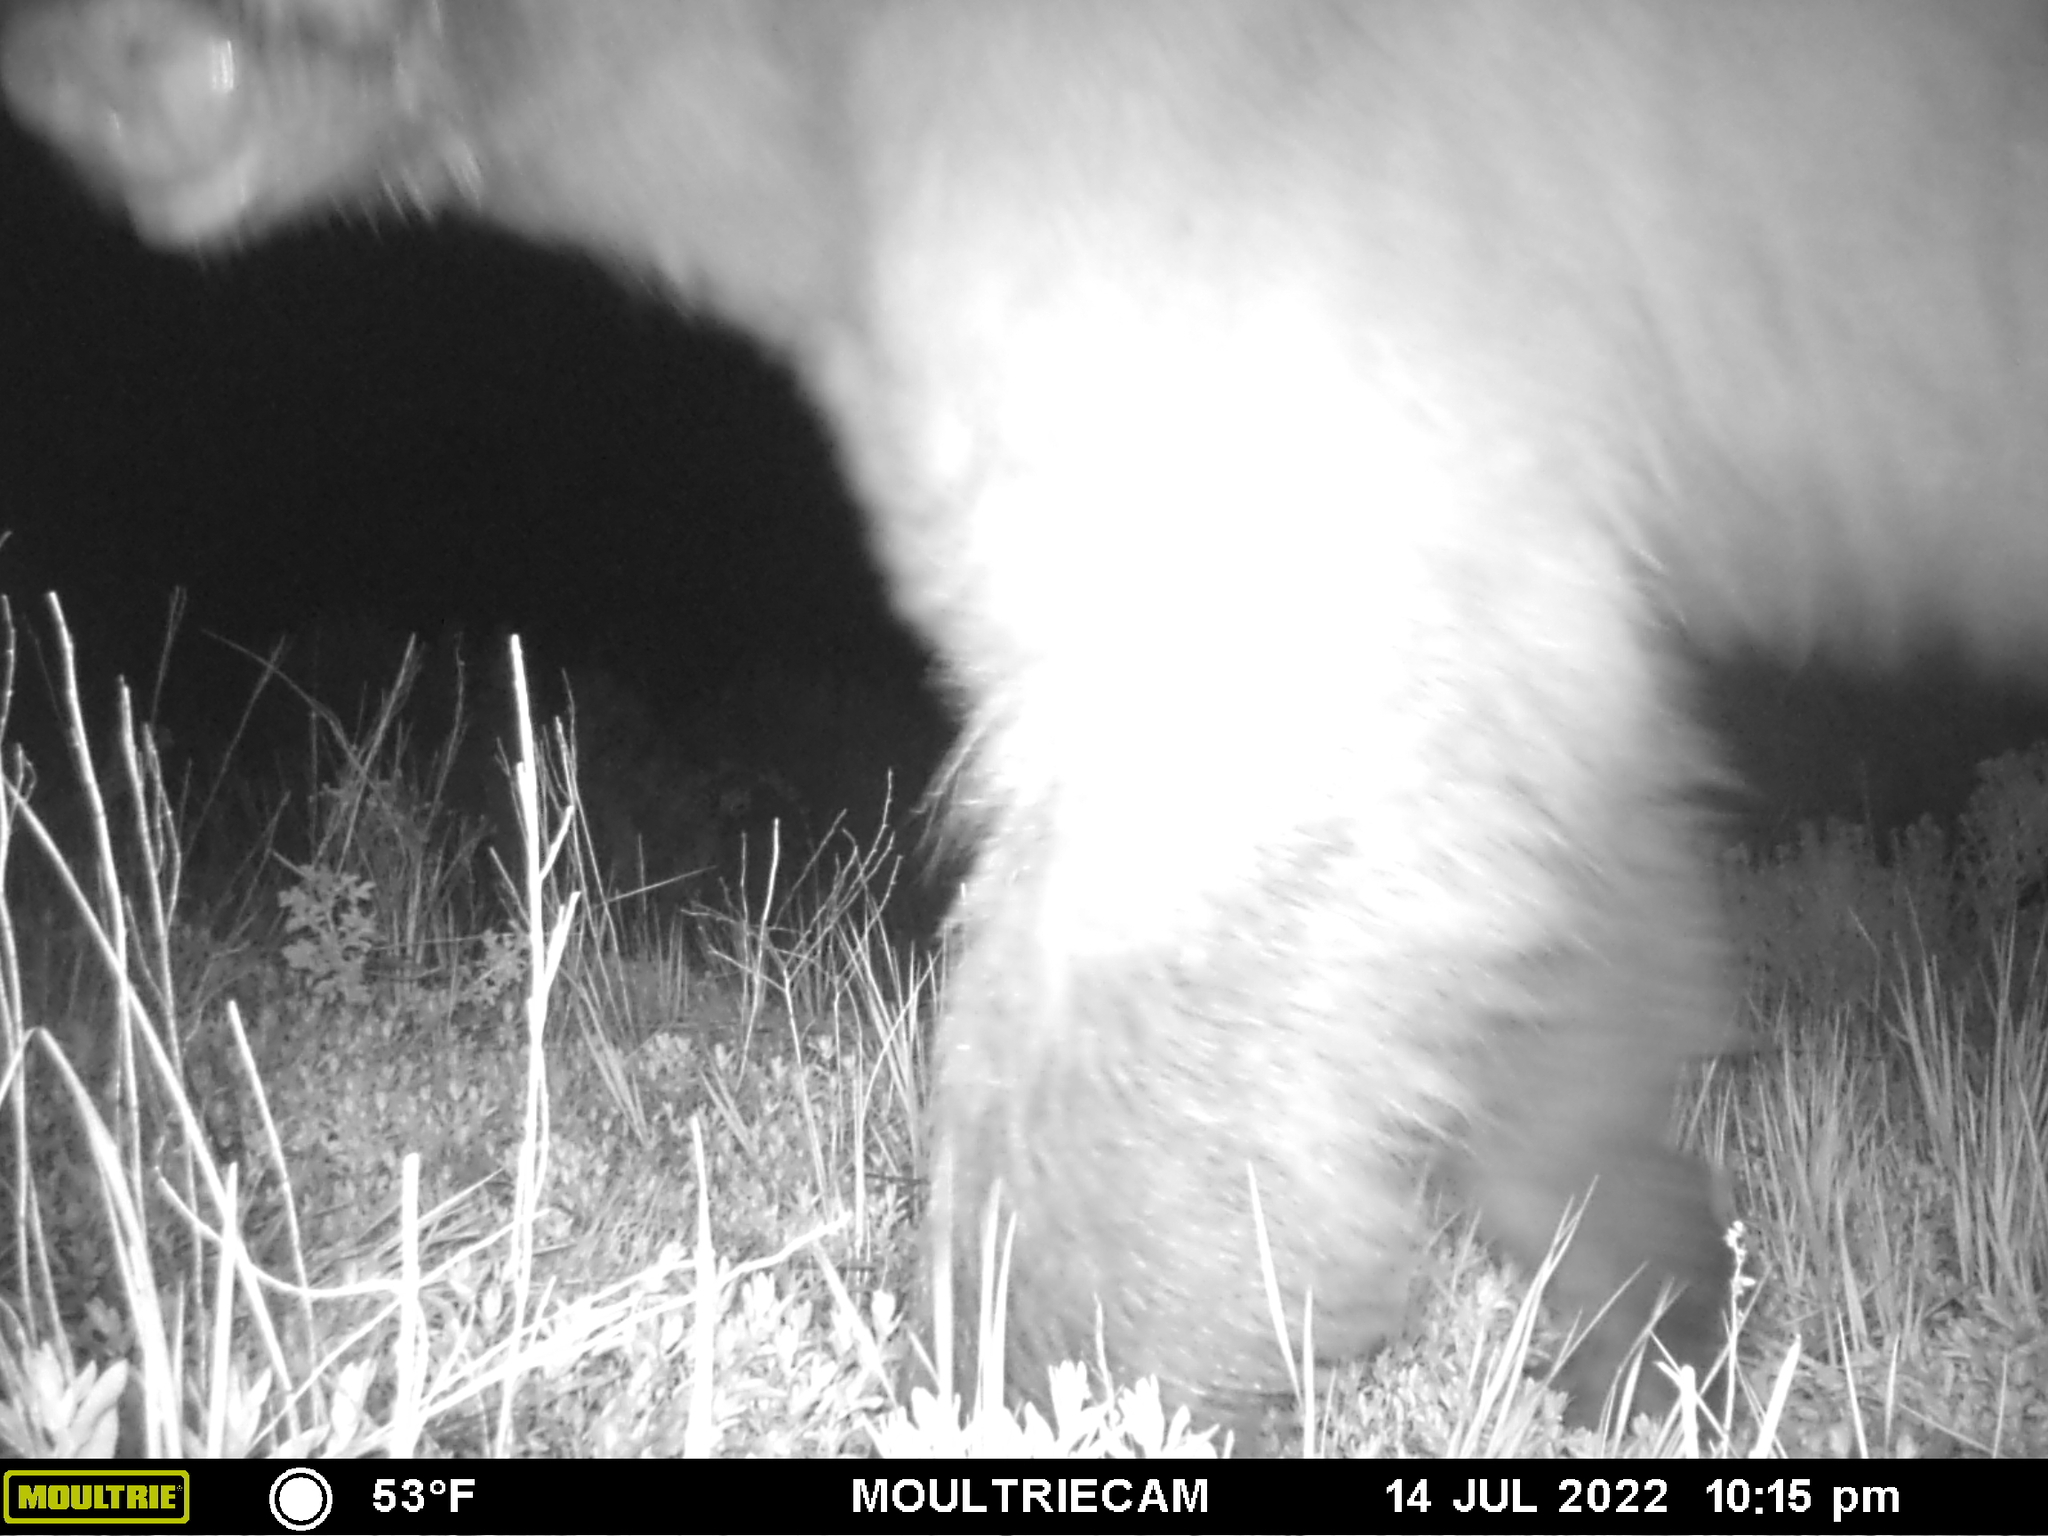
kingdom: Animalia
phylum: Chordata
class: Mammalia
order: Carnivora
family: Ursidae
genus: Ursus
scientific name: Ursus americanus
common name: American black bear
